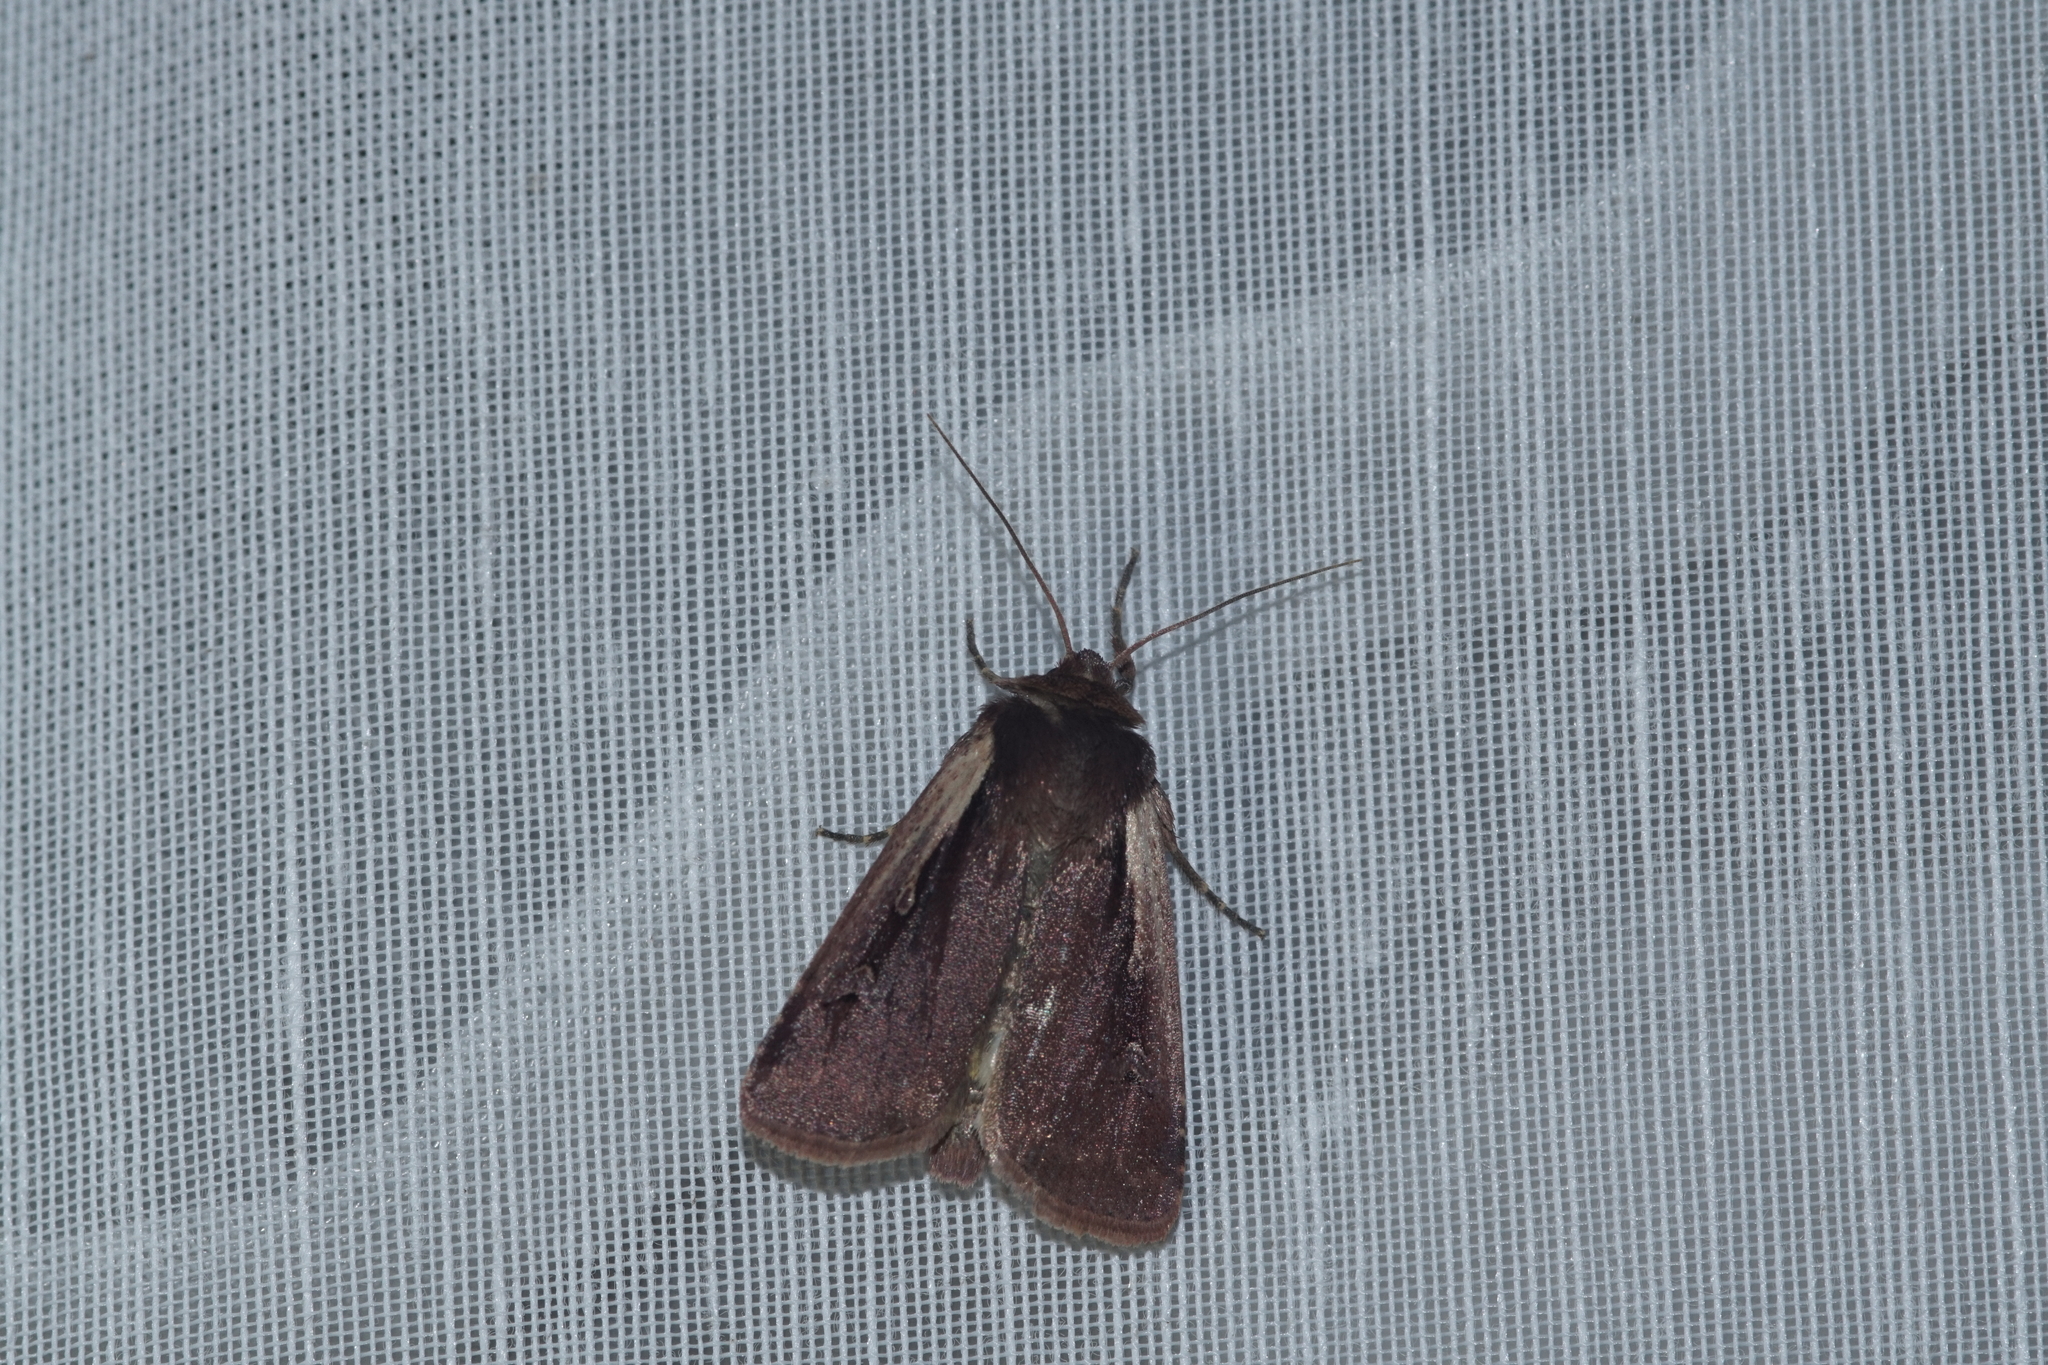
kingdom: Animalia
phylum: Arthropoda
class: Insecta
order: Lepidoptera
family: Noctuidae
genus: Ochropleura
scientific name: Ochropleura plecta
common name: Flame shoulder
